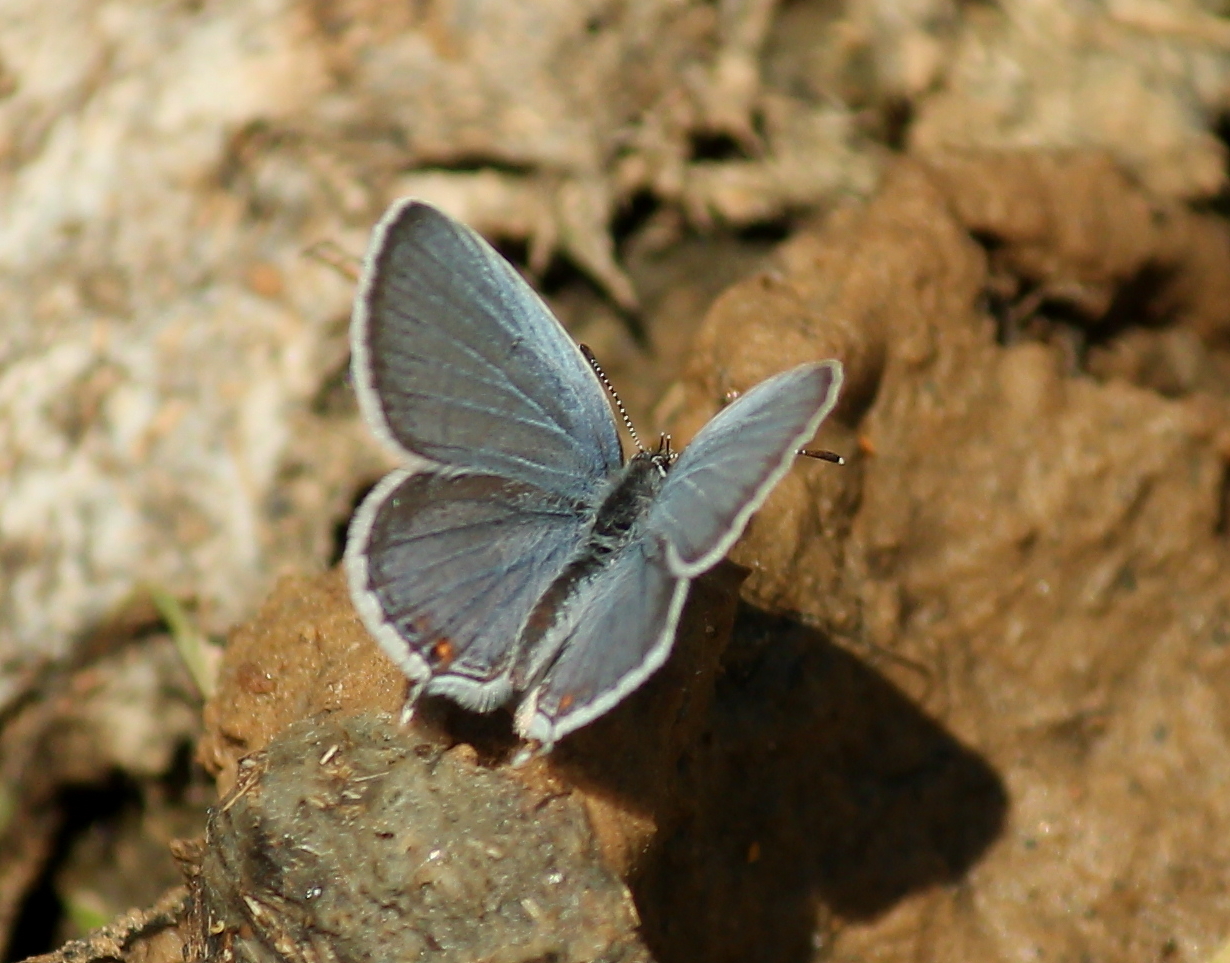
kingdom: Animalia
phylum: Arthropoda
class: Insecta
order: Lepidoptera
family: Lycaenidae
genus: Elkalyce
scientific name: Elkalyce comyntas
